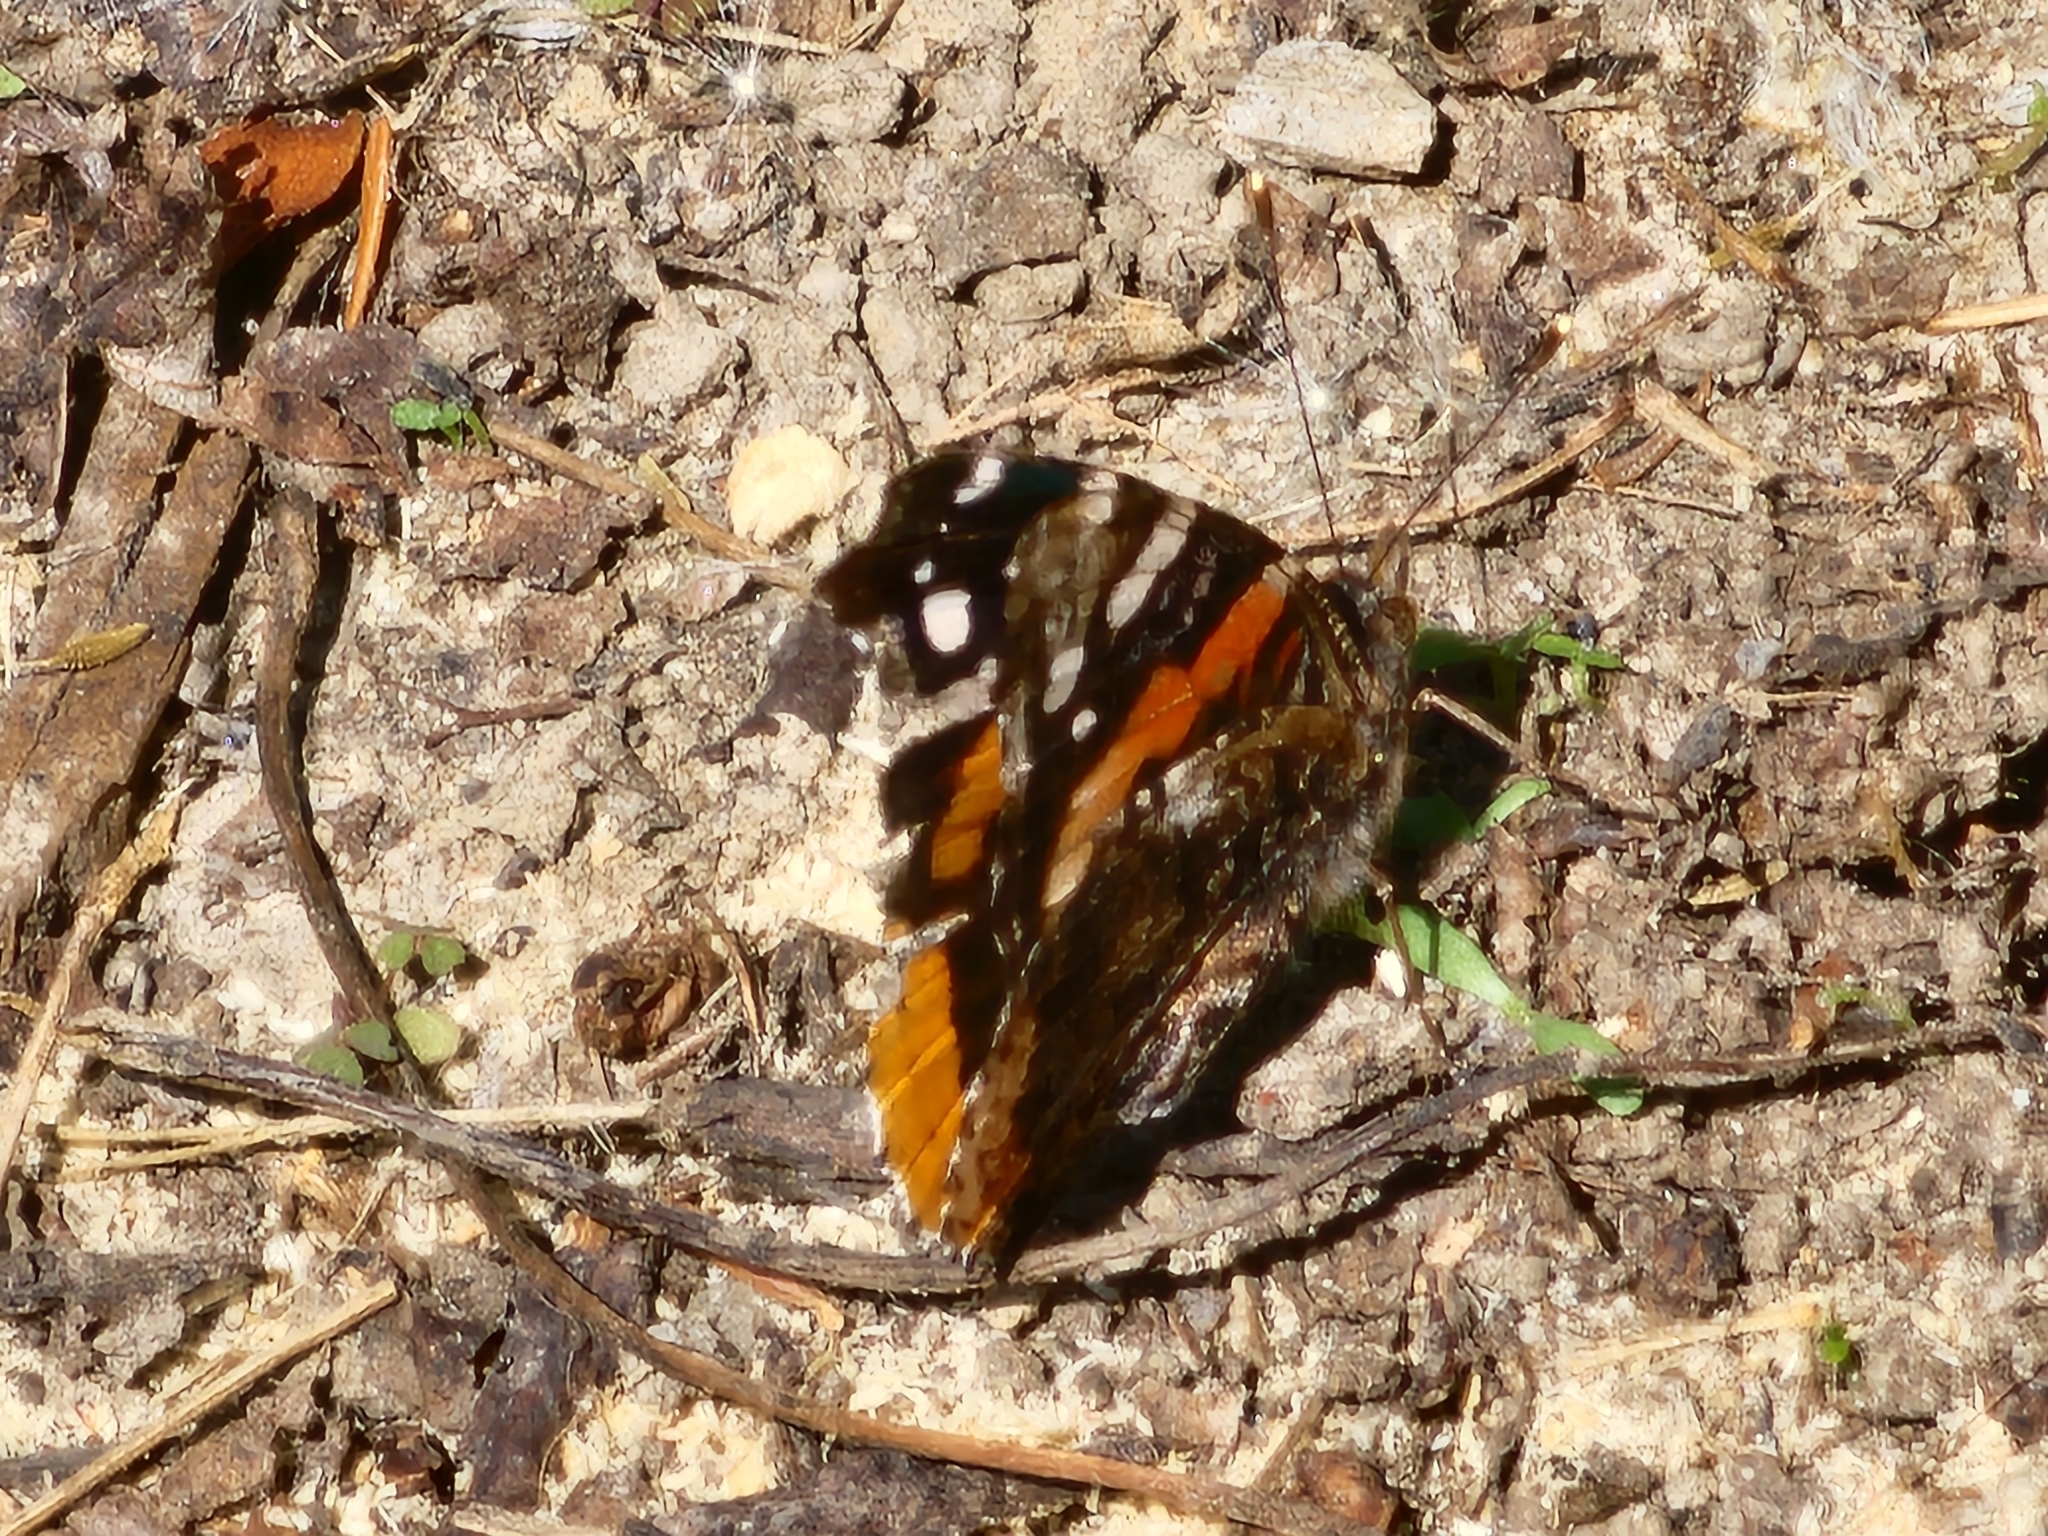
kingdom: Animalia
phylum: Arthropoda
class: Insecta
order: Lepidoptera
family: Nymphalidae
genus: Vanessa
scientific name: Vanessa atalanta
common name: Red admiral
